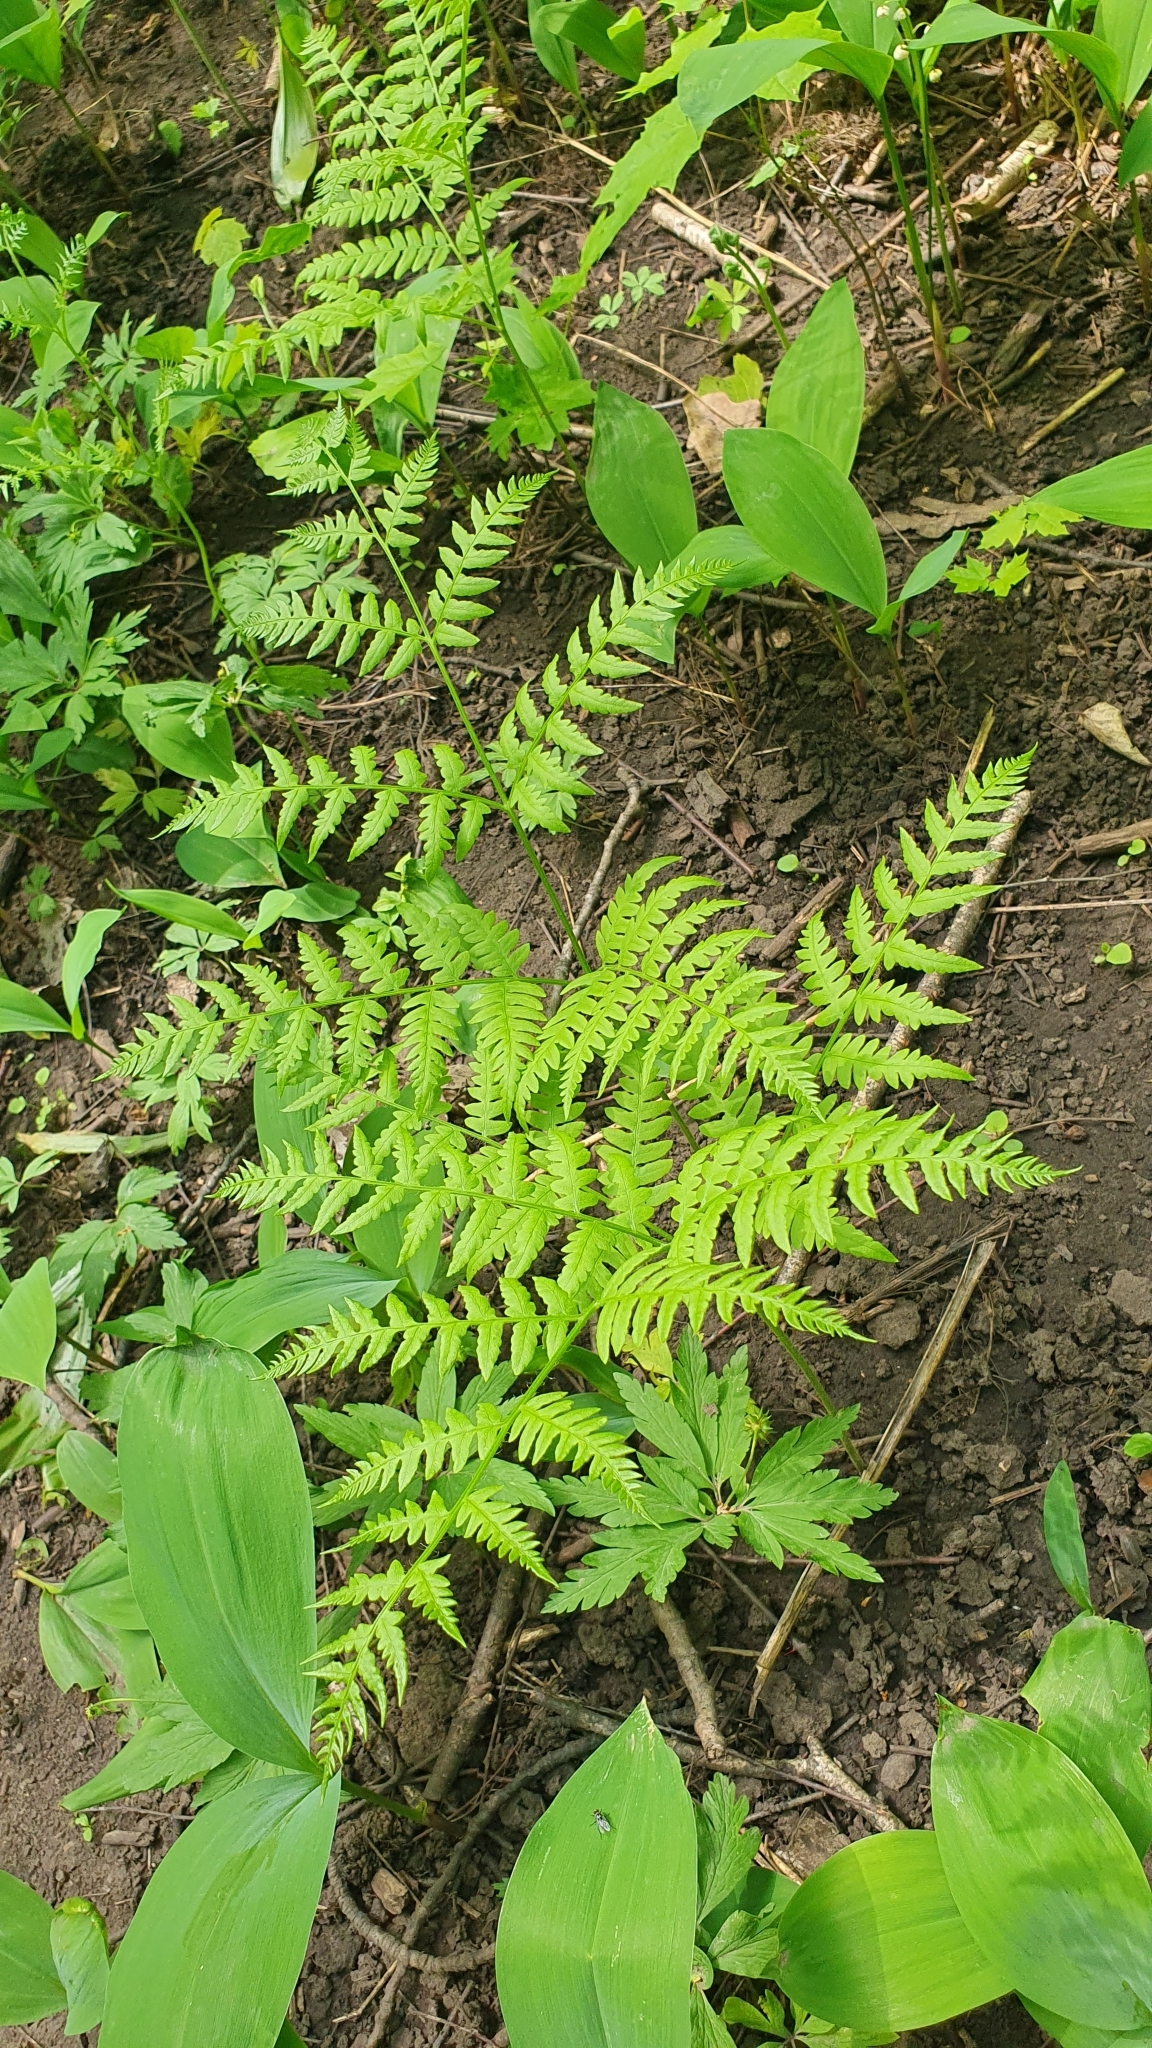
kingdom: Plantae
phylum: Tracheophyta
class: Polypodiopsida
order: Polypodiales
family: Dennstaedtiaceae
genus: Pteridium
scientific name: Pteridium aquilinum
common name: Bracken
